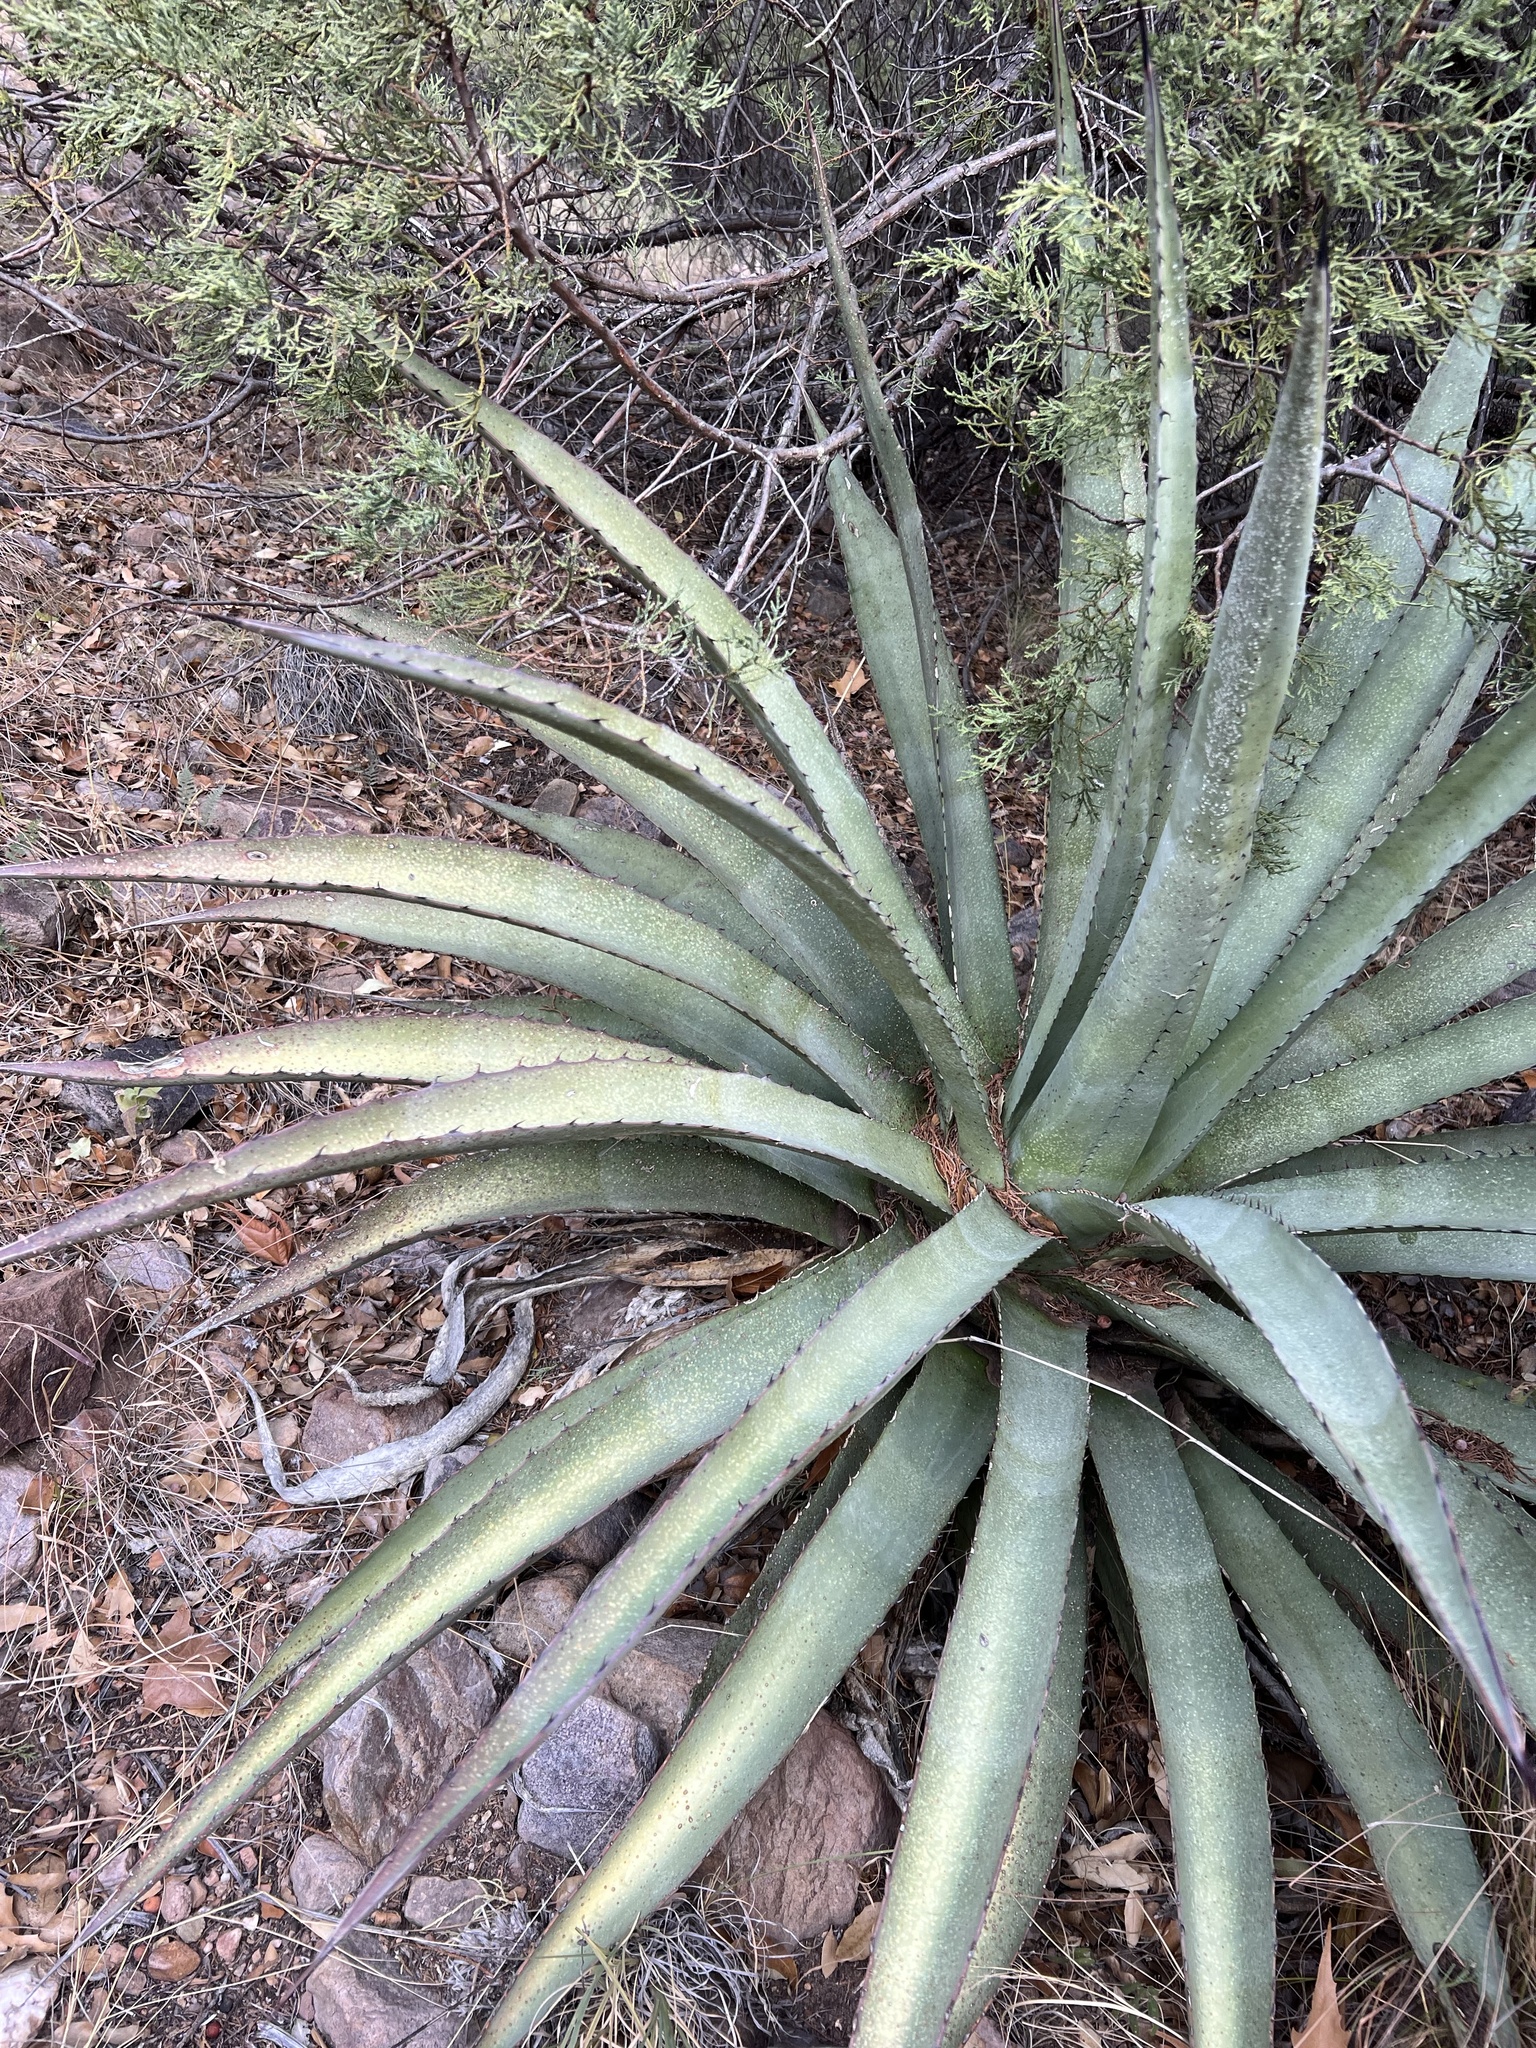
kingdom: Plantae
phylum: Tracheophyta
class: Liliopsida
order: Asparagales
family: Asparagaceae
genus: Agave
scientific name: Agave palmeri
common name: Palmer agave
